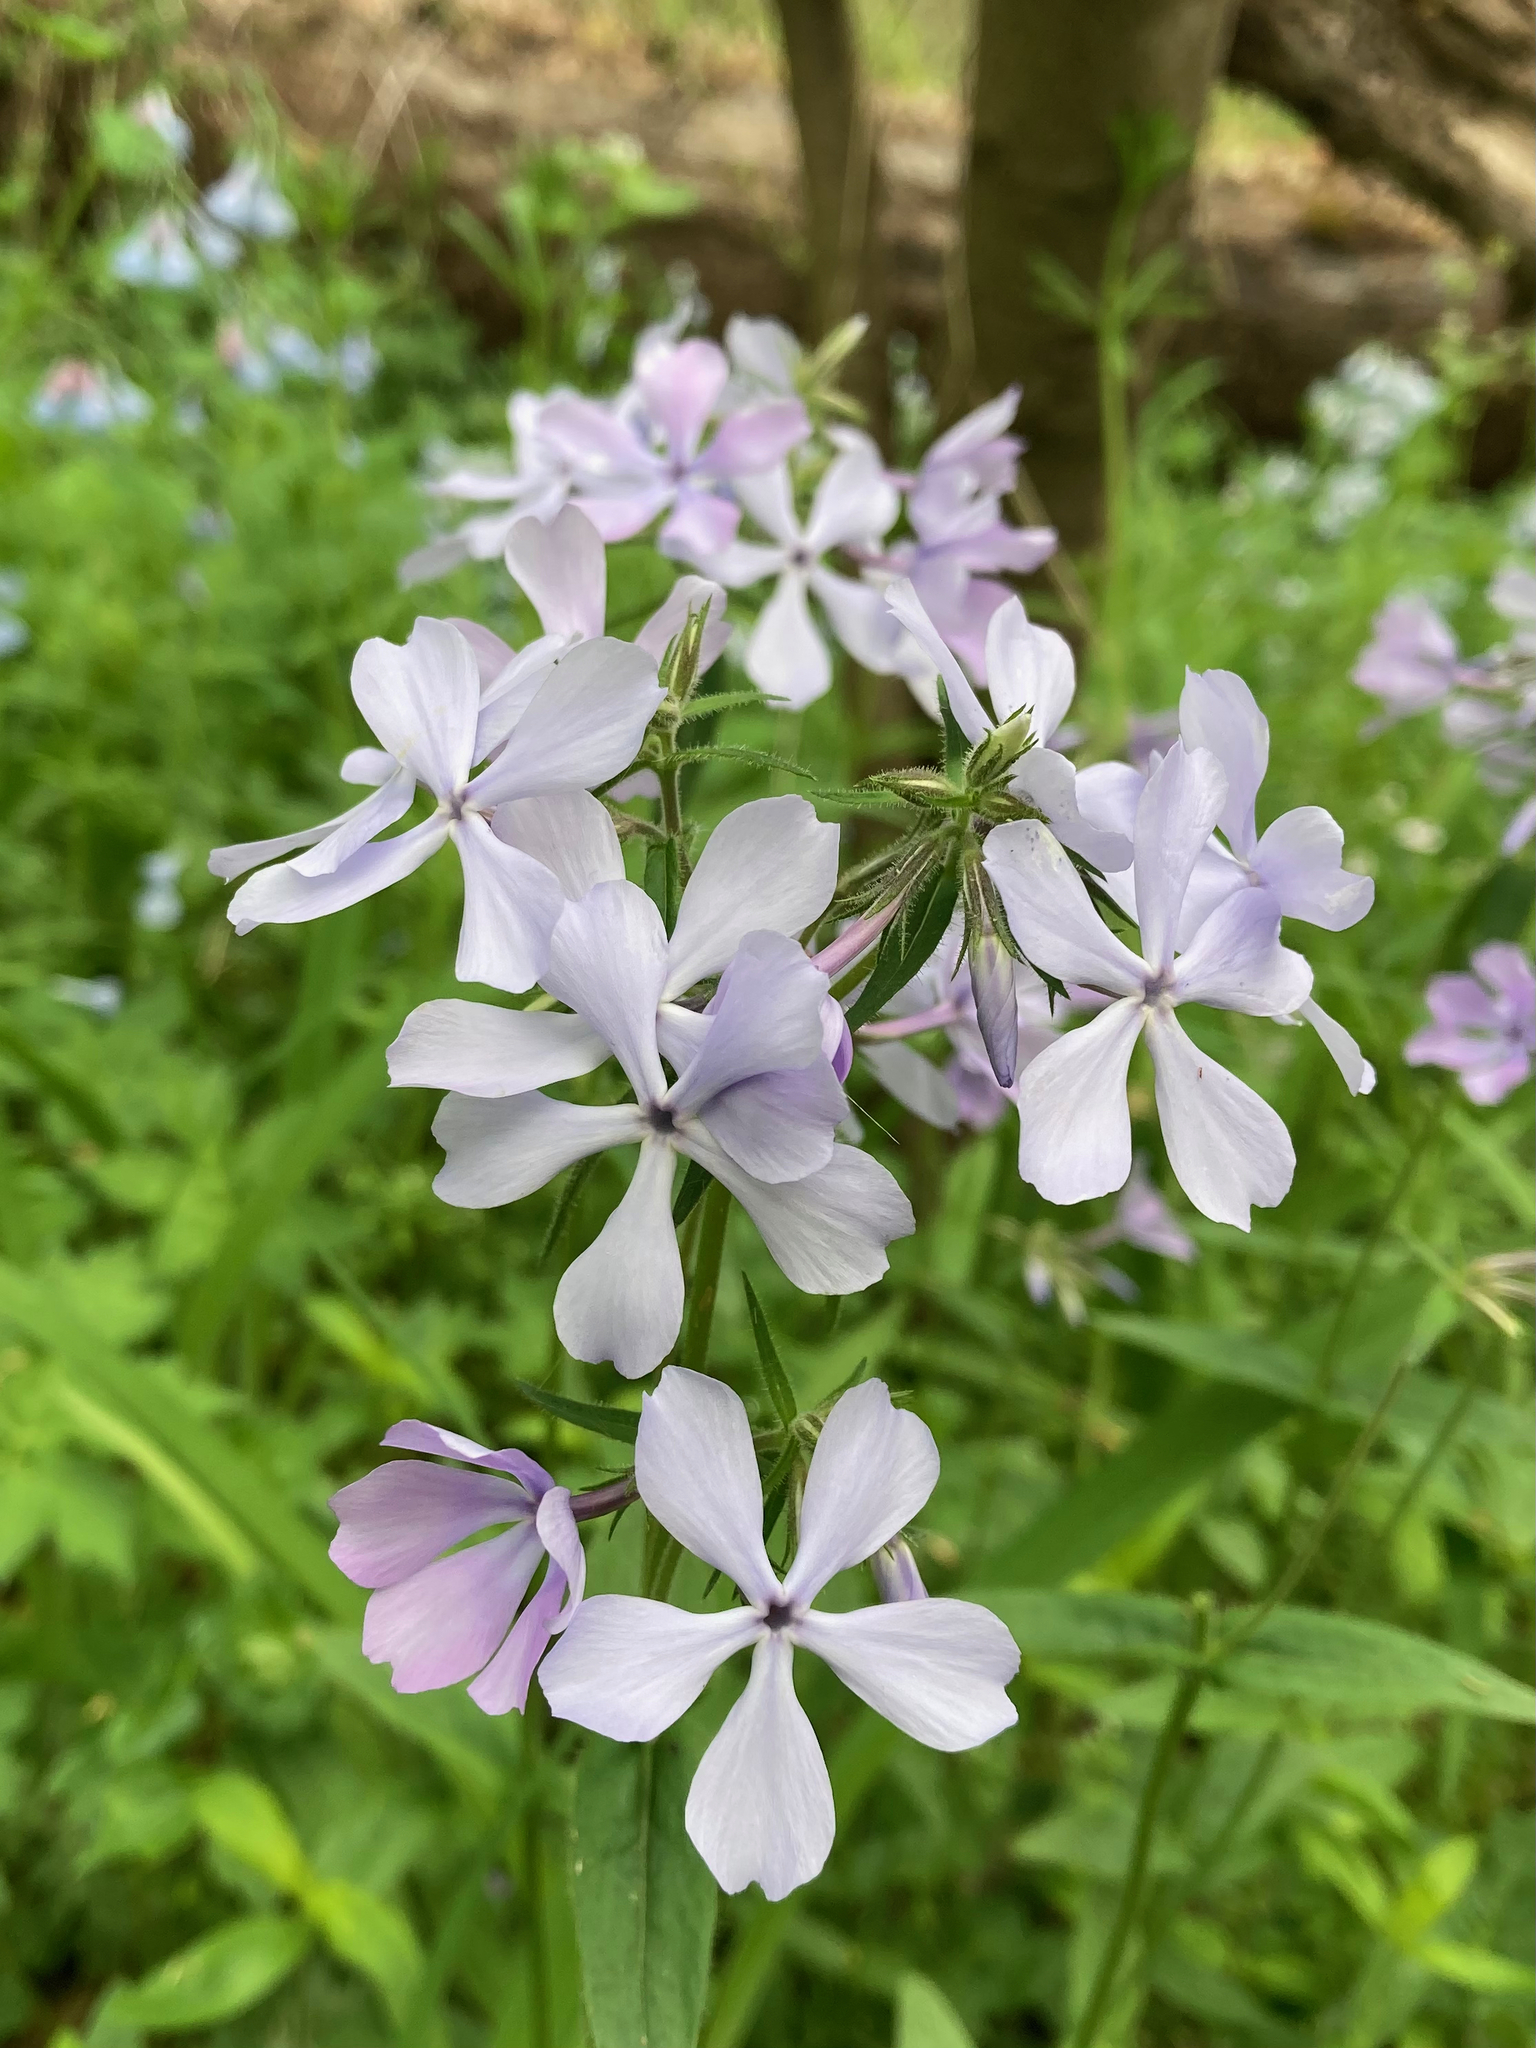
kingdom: Plantae
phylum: Tracheophyta
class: Magnoliopsida
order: Ericales
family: Polemoniaceae
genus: Phlox
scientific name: Phlox divaricata
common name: Blue phlox
